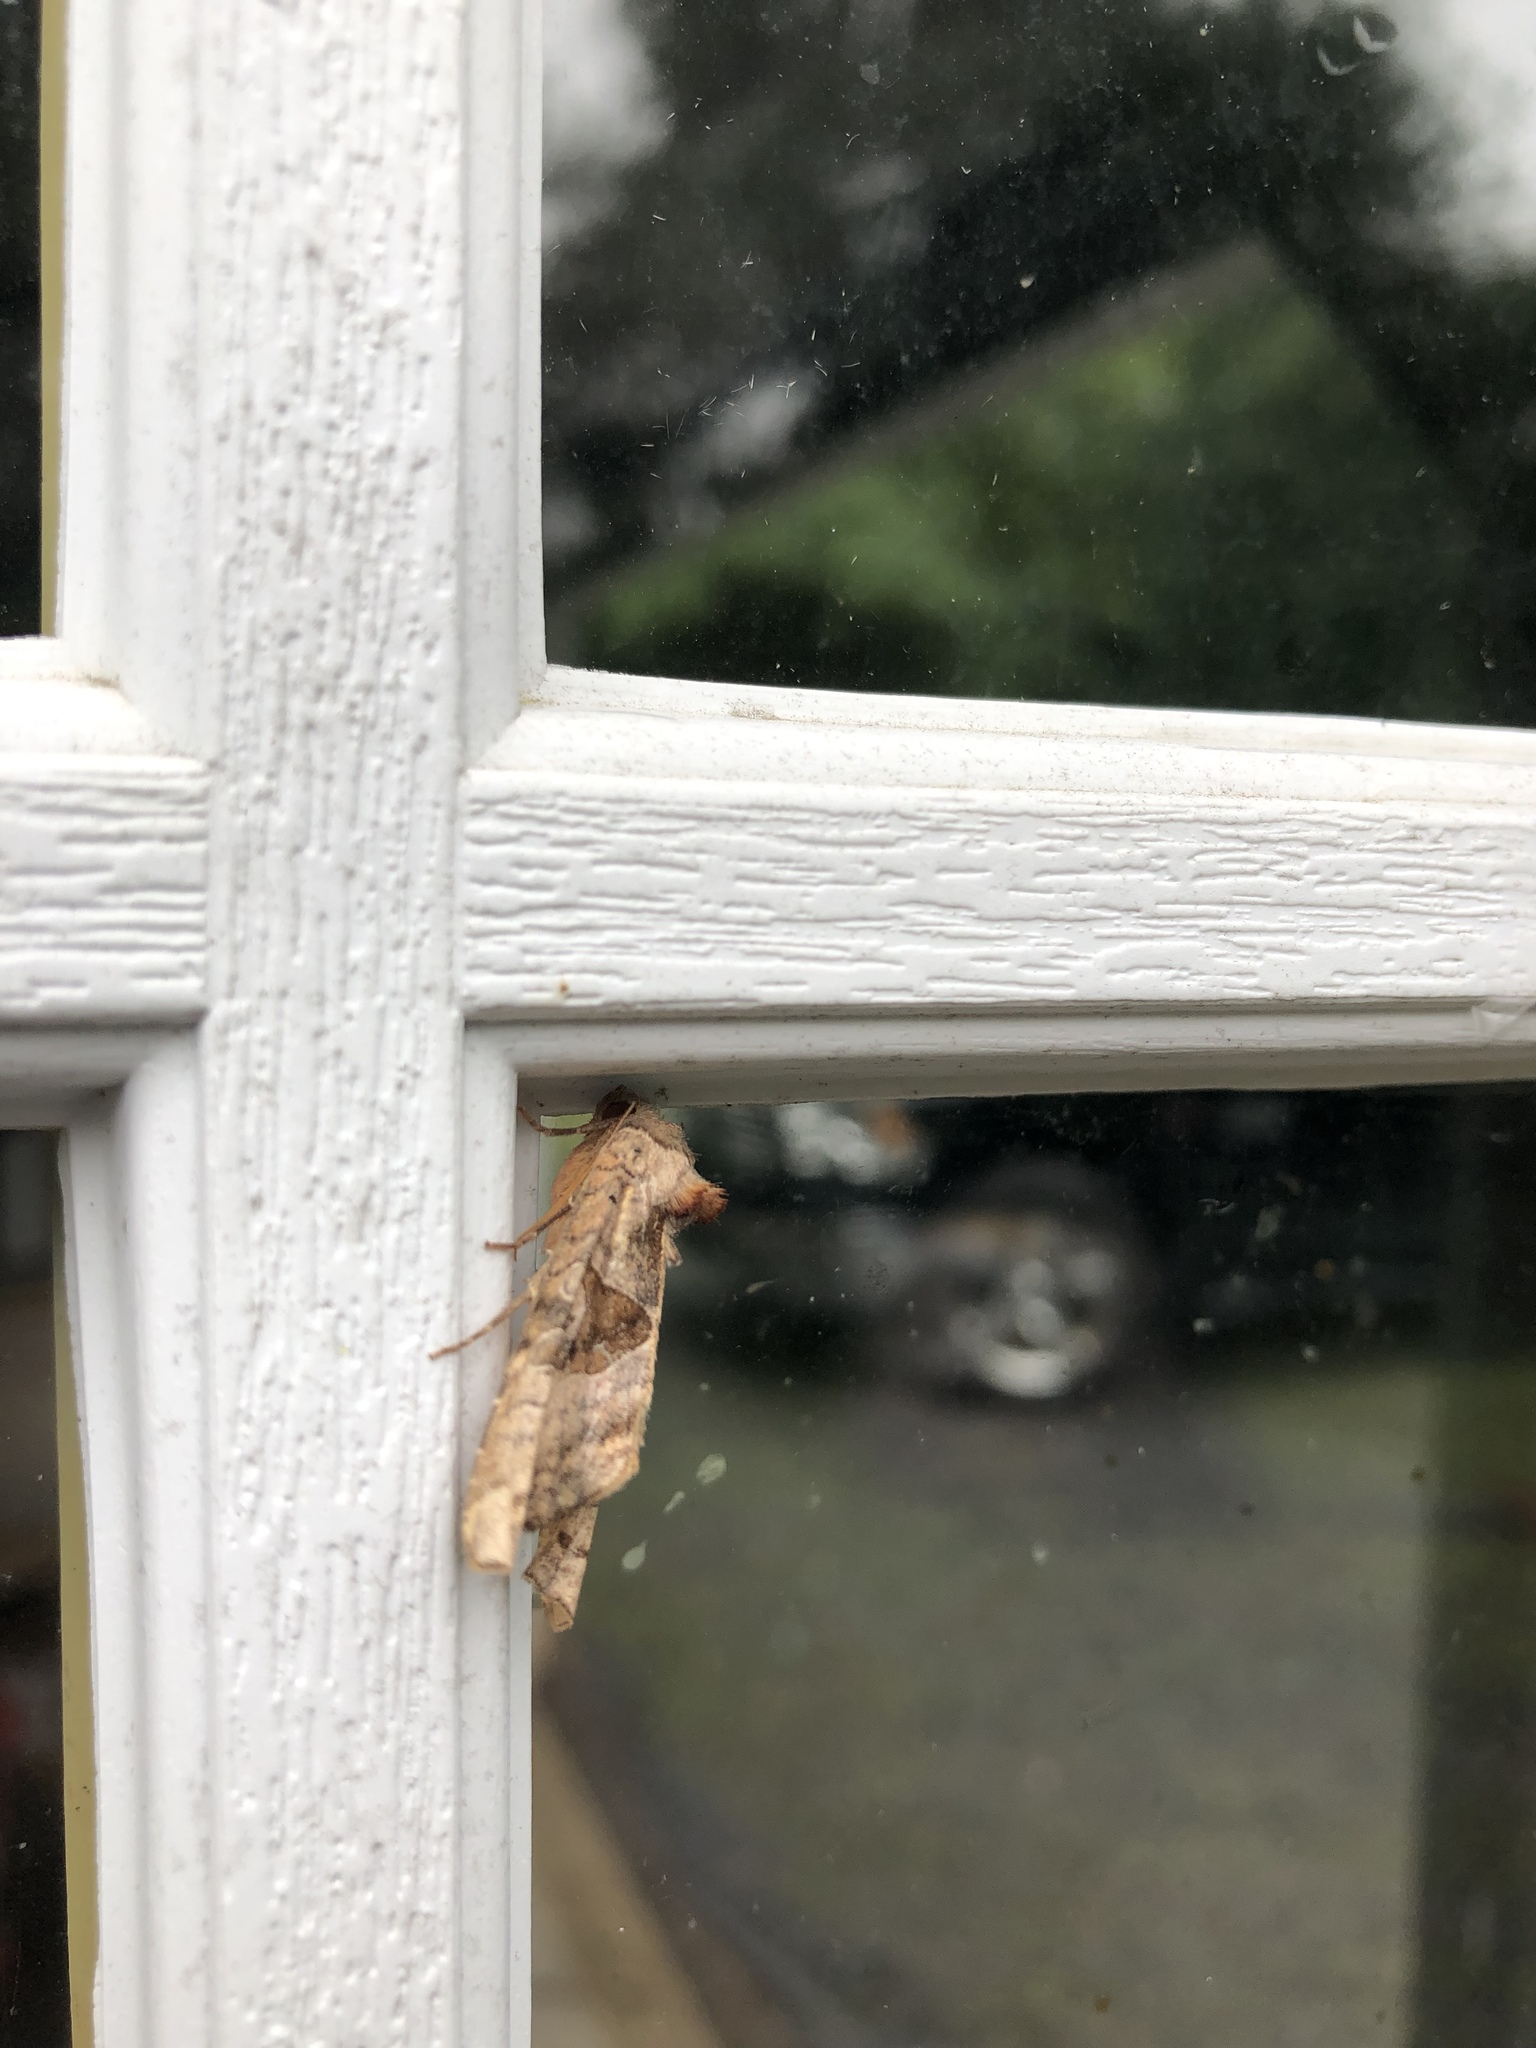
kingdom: Animalia
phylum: Arthropoda
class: Insecta
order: Lepidoptera
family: Noctuidae
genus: Phlogophora
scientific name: Phlogophora periculosa
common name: Brown angle shades
